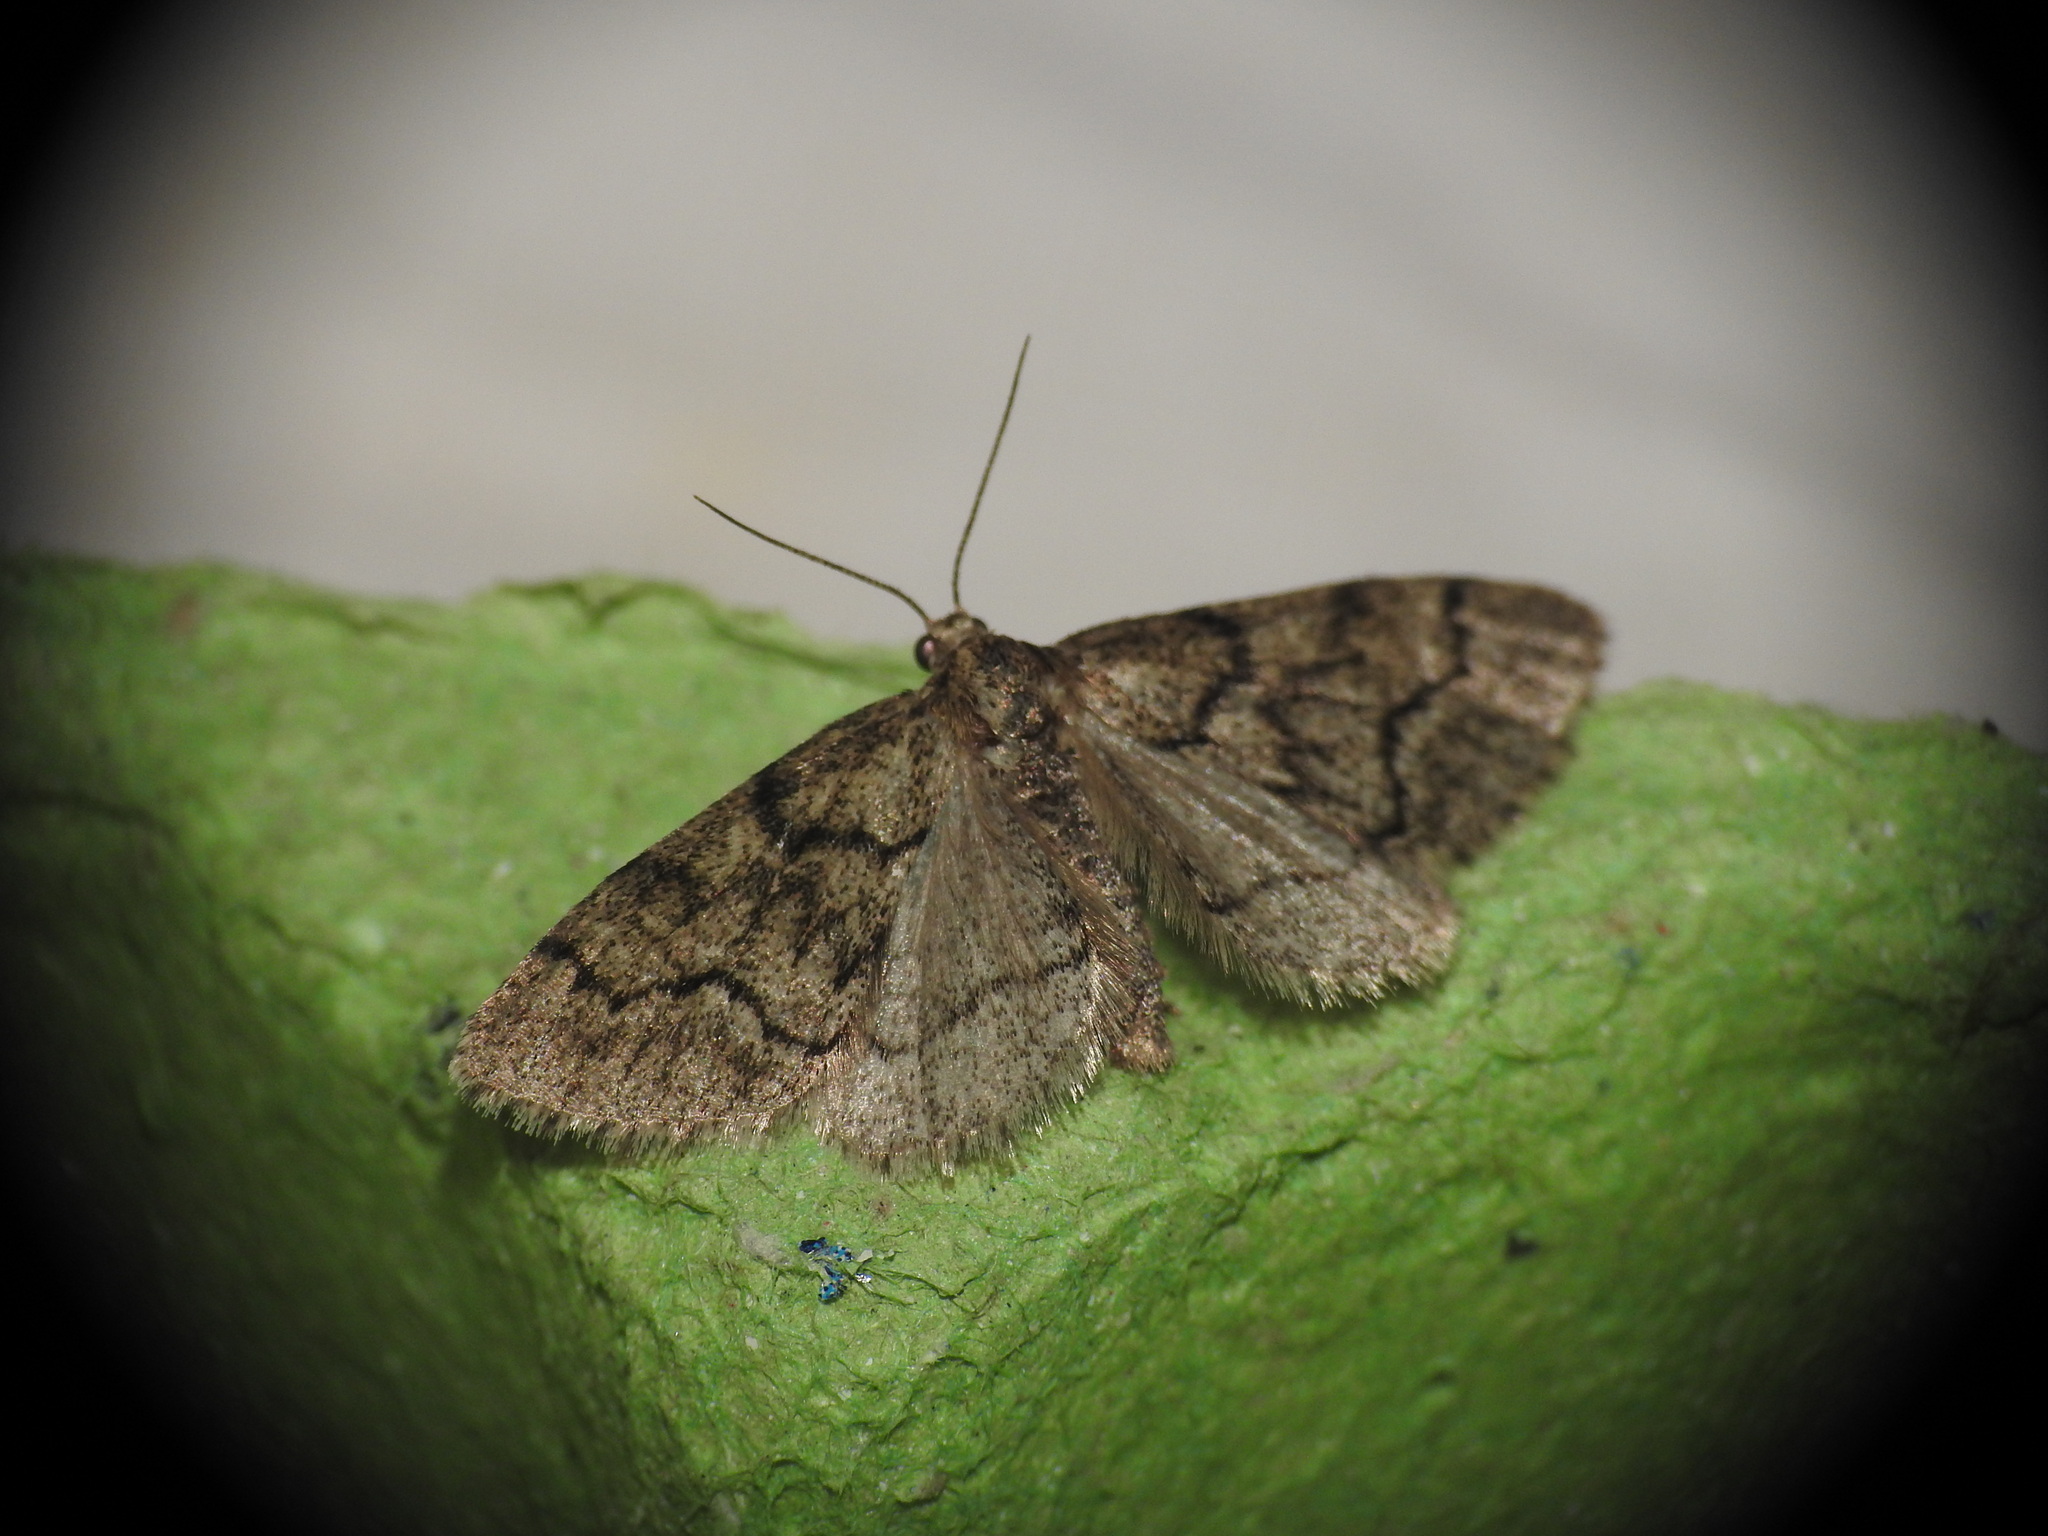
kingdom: Animalia
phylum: Arthropoda
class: Insecta
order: Lepidoptera
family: Geometridae
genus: Tephronia
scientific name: Tephronia sepiaria
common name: Dusky carpet
